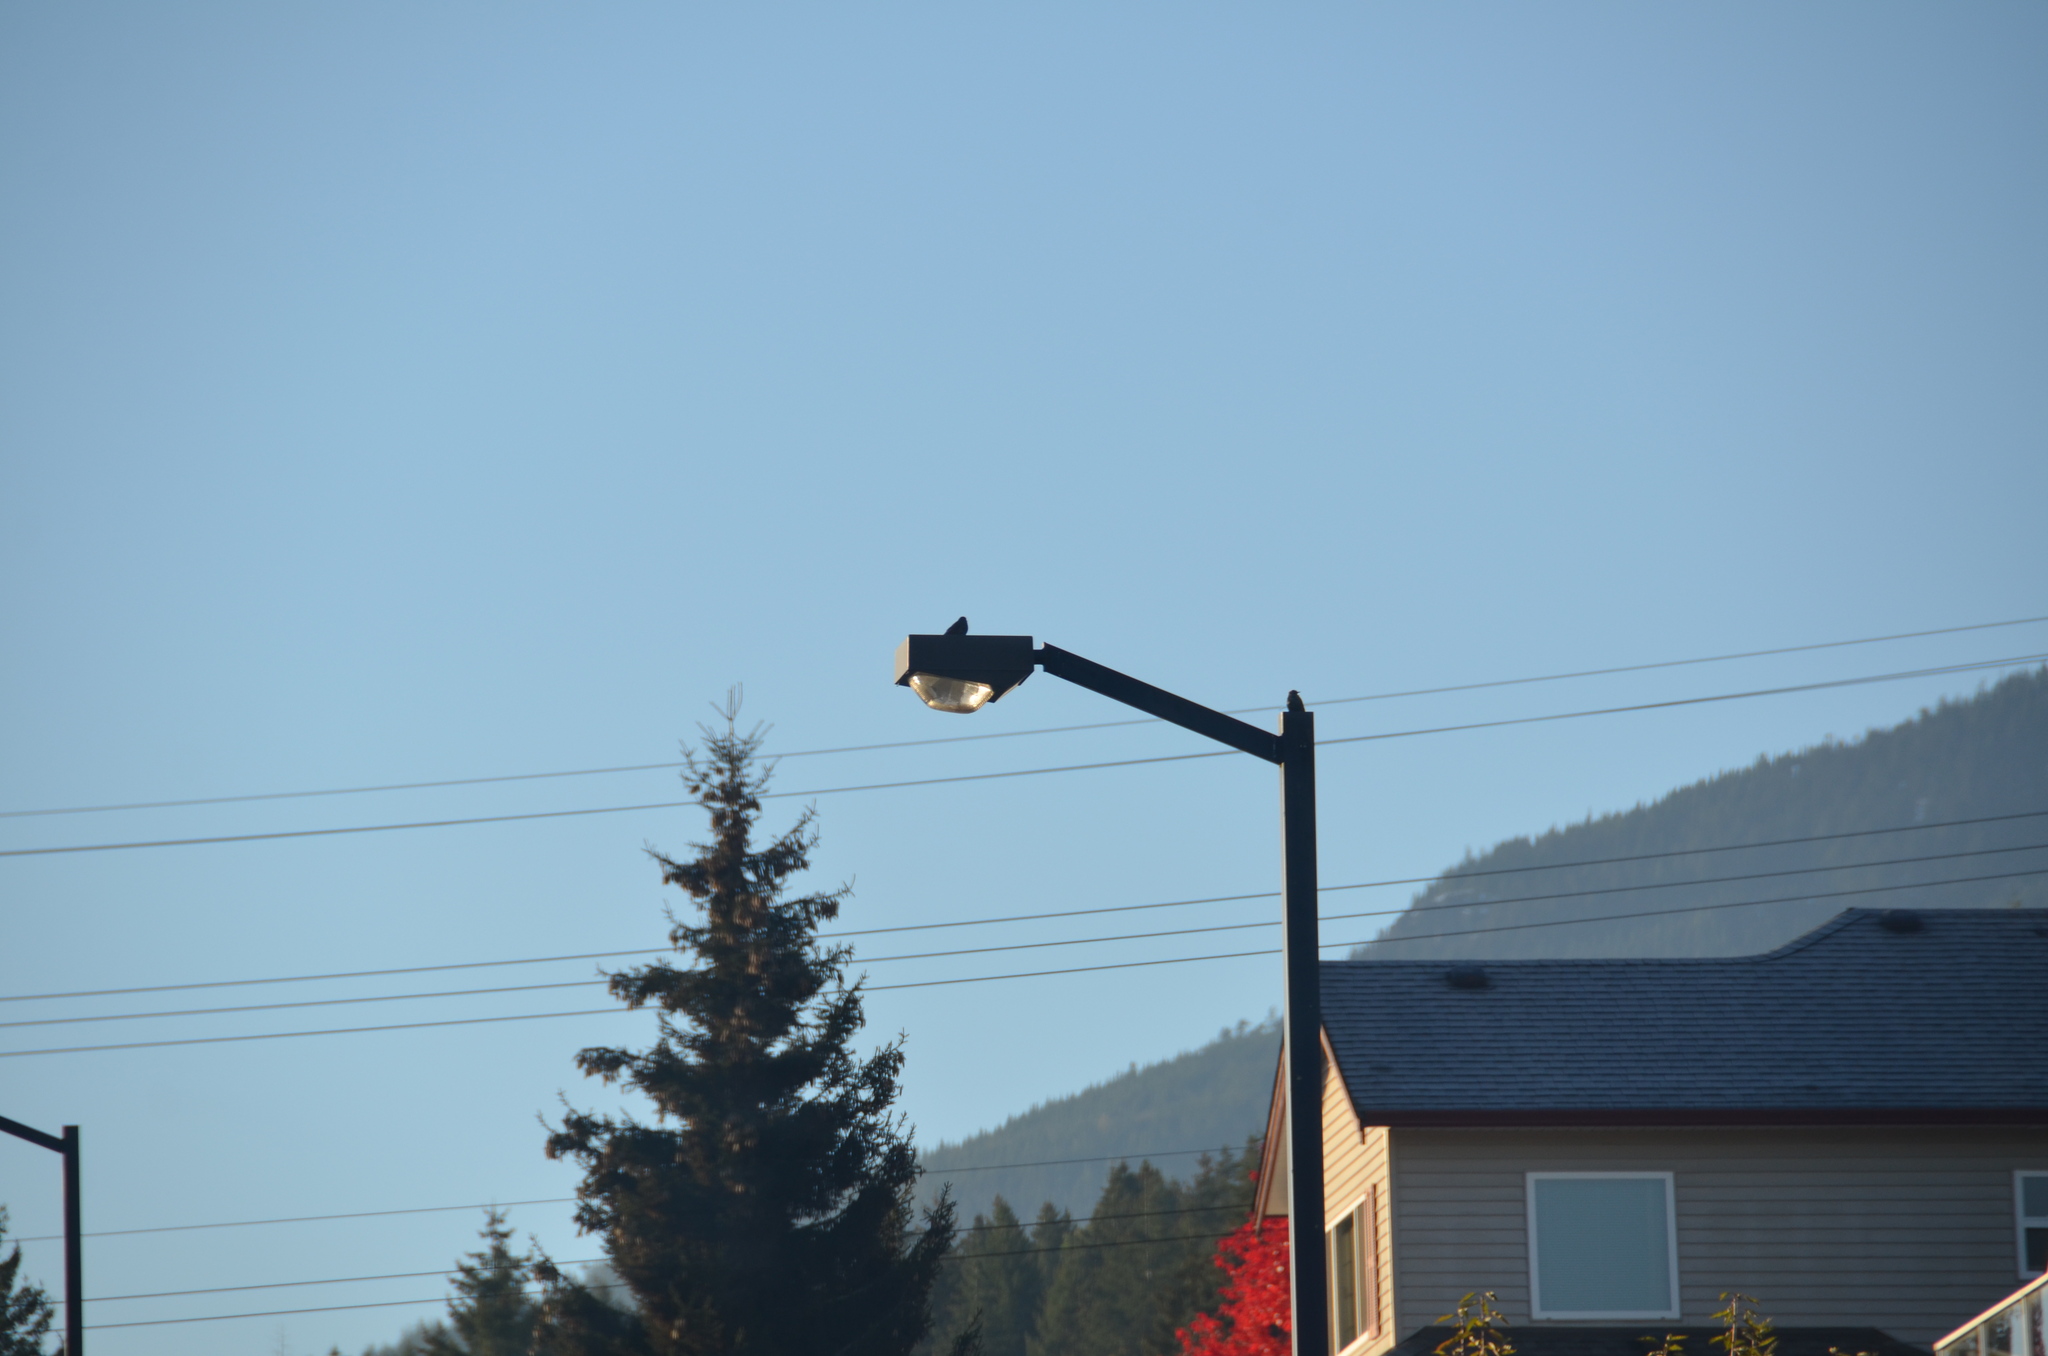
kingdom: Animalia
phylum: Chordata
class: Aves
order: Passeriformes
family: Sturnidae
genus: Sturnus
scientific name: Sturnus vulgaris
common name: Common starling
